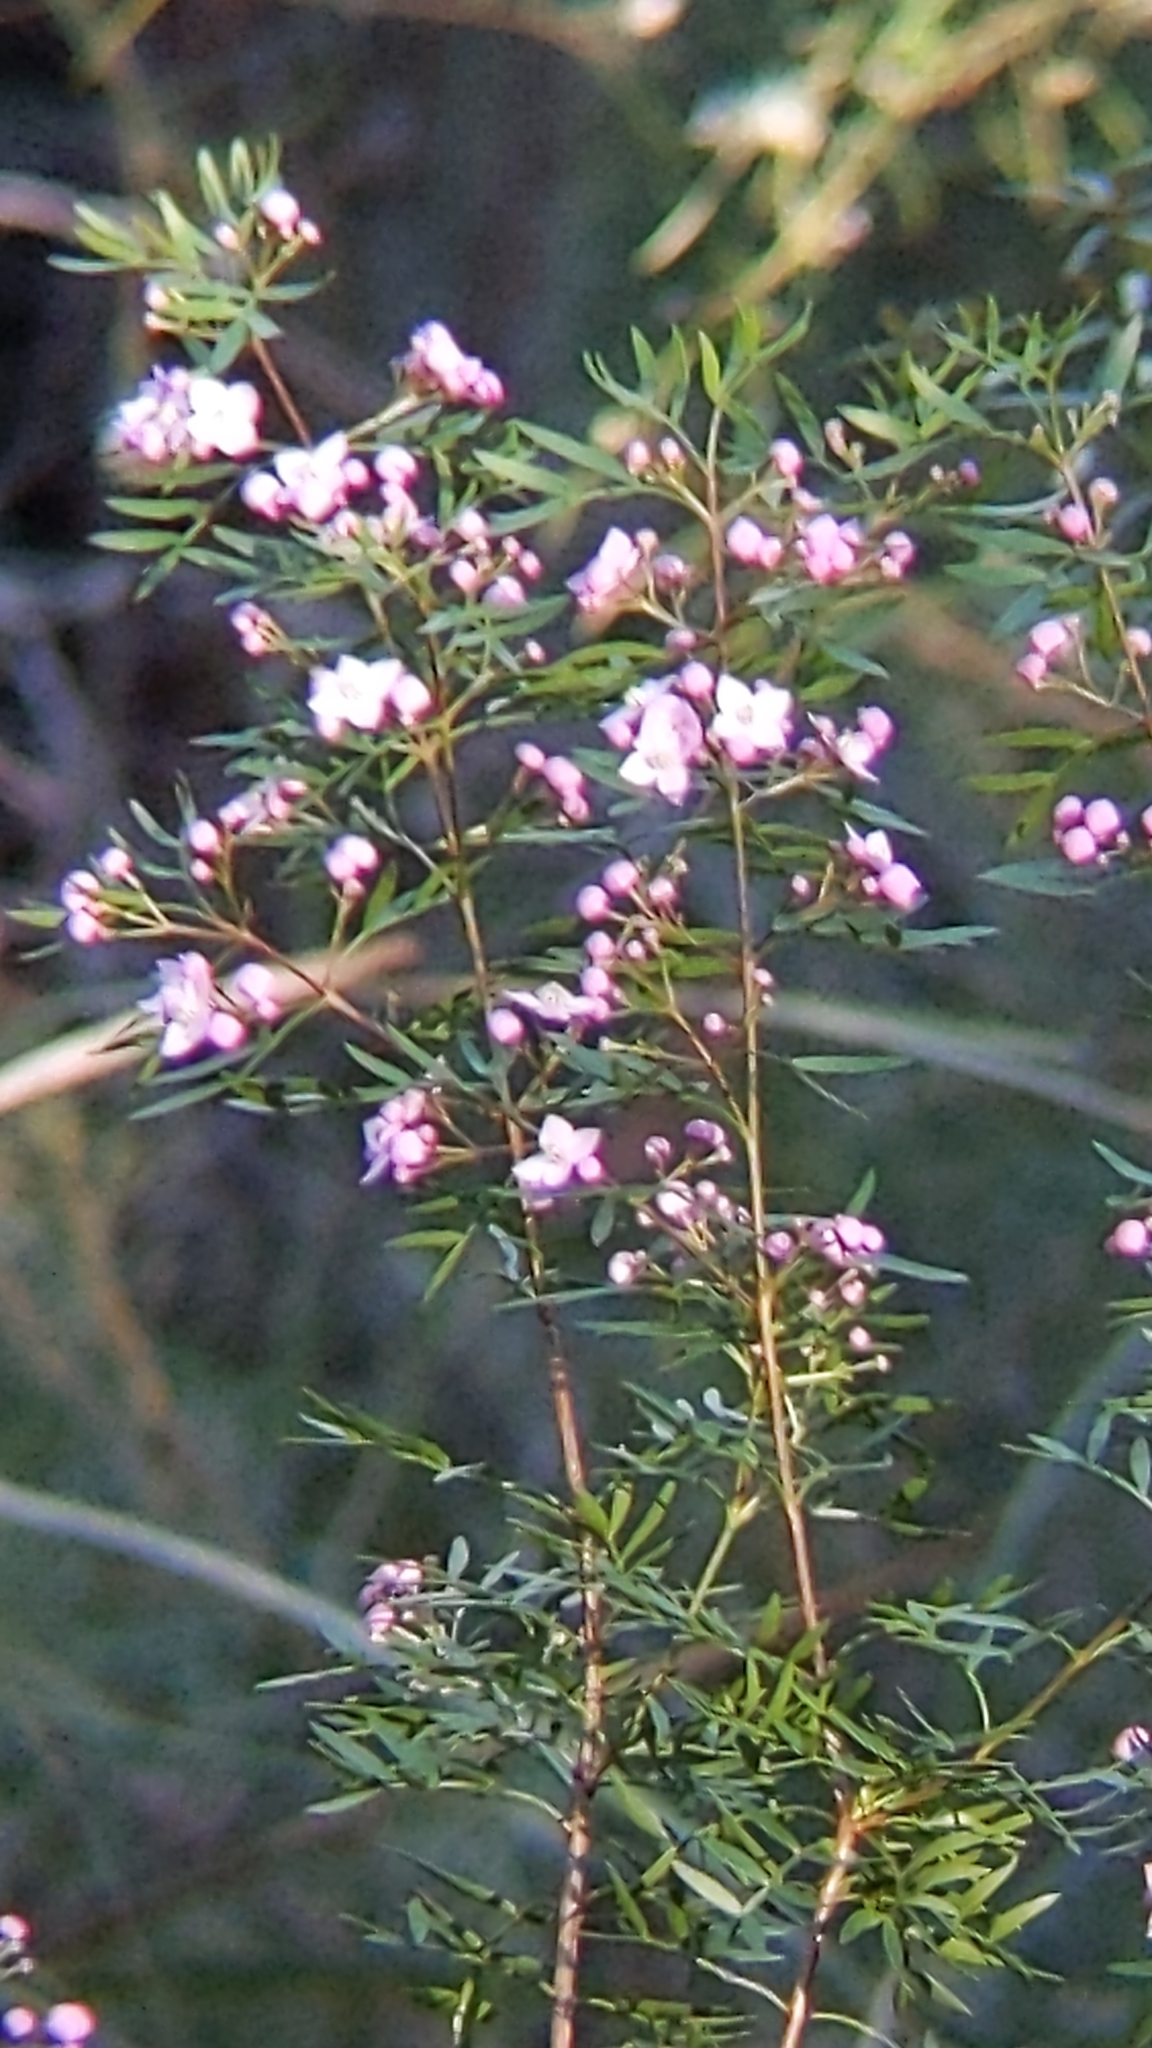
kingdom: Plantae
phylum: Tracheophyta
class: Magnoliopsida
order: Sapindales
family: Rutaceae
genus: Boronia
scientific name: Boronia pinnata
